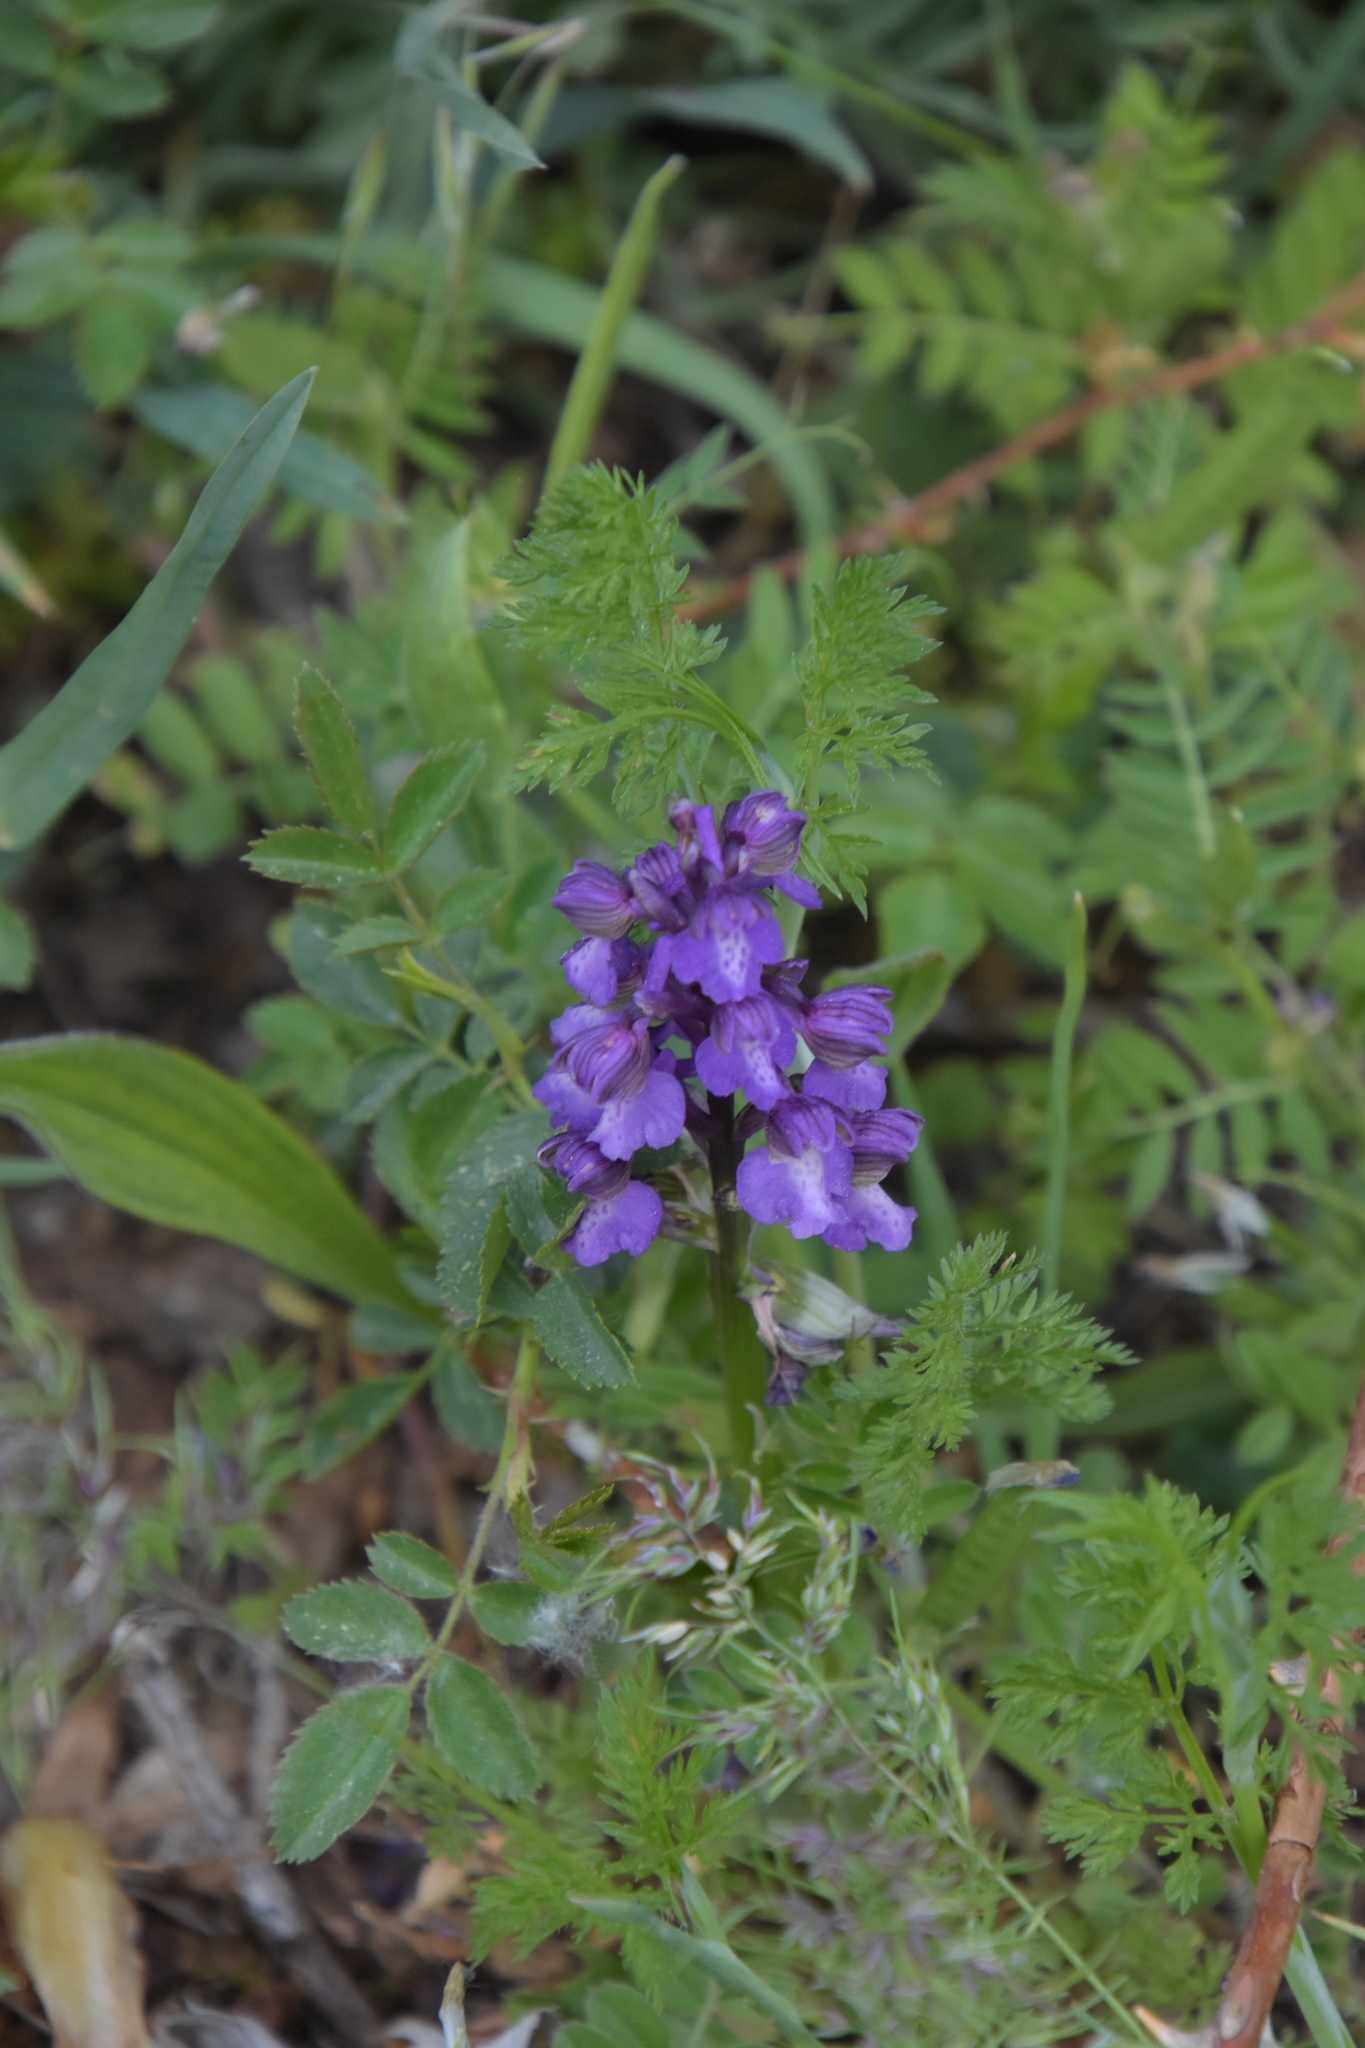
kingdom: Plantae
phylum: Tracheophyta
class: Liliopsida
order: Asparagales
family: Orchidaceae
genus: Anacamptis
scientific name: Anacamptis morio
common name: Green-winged orchid
